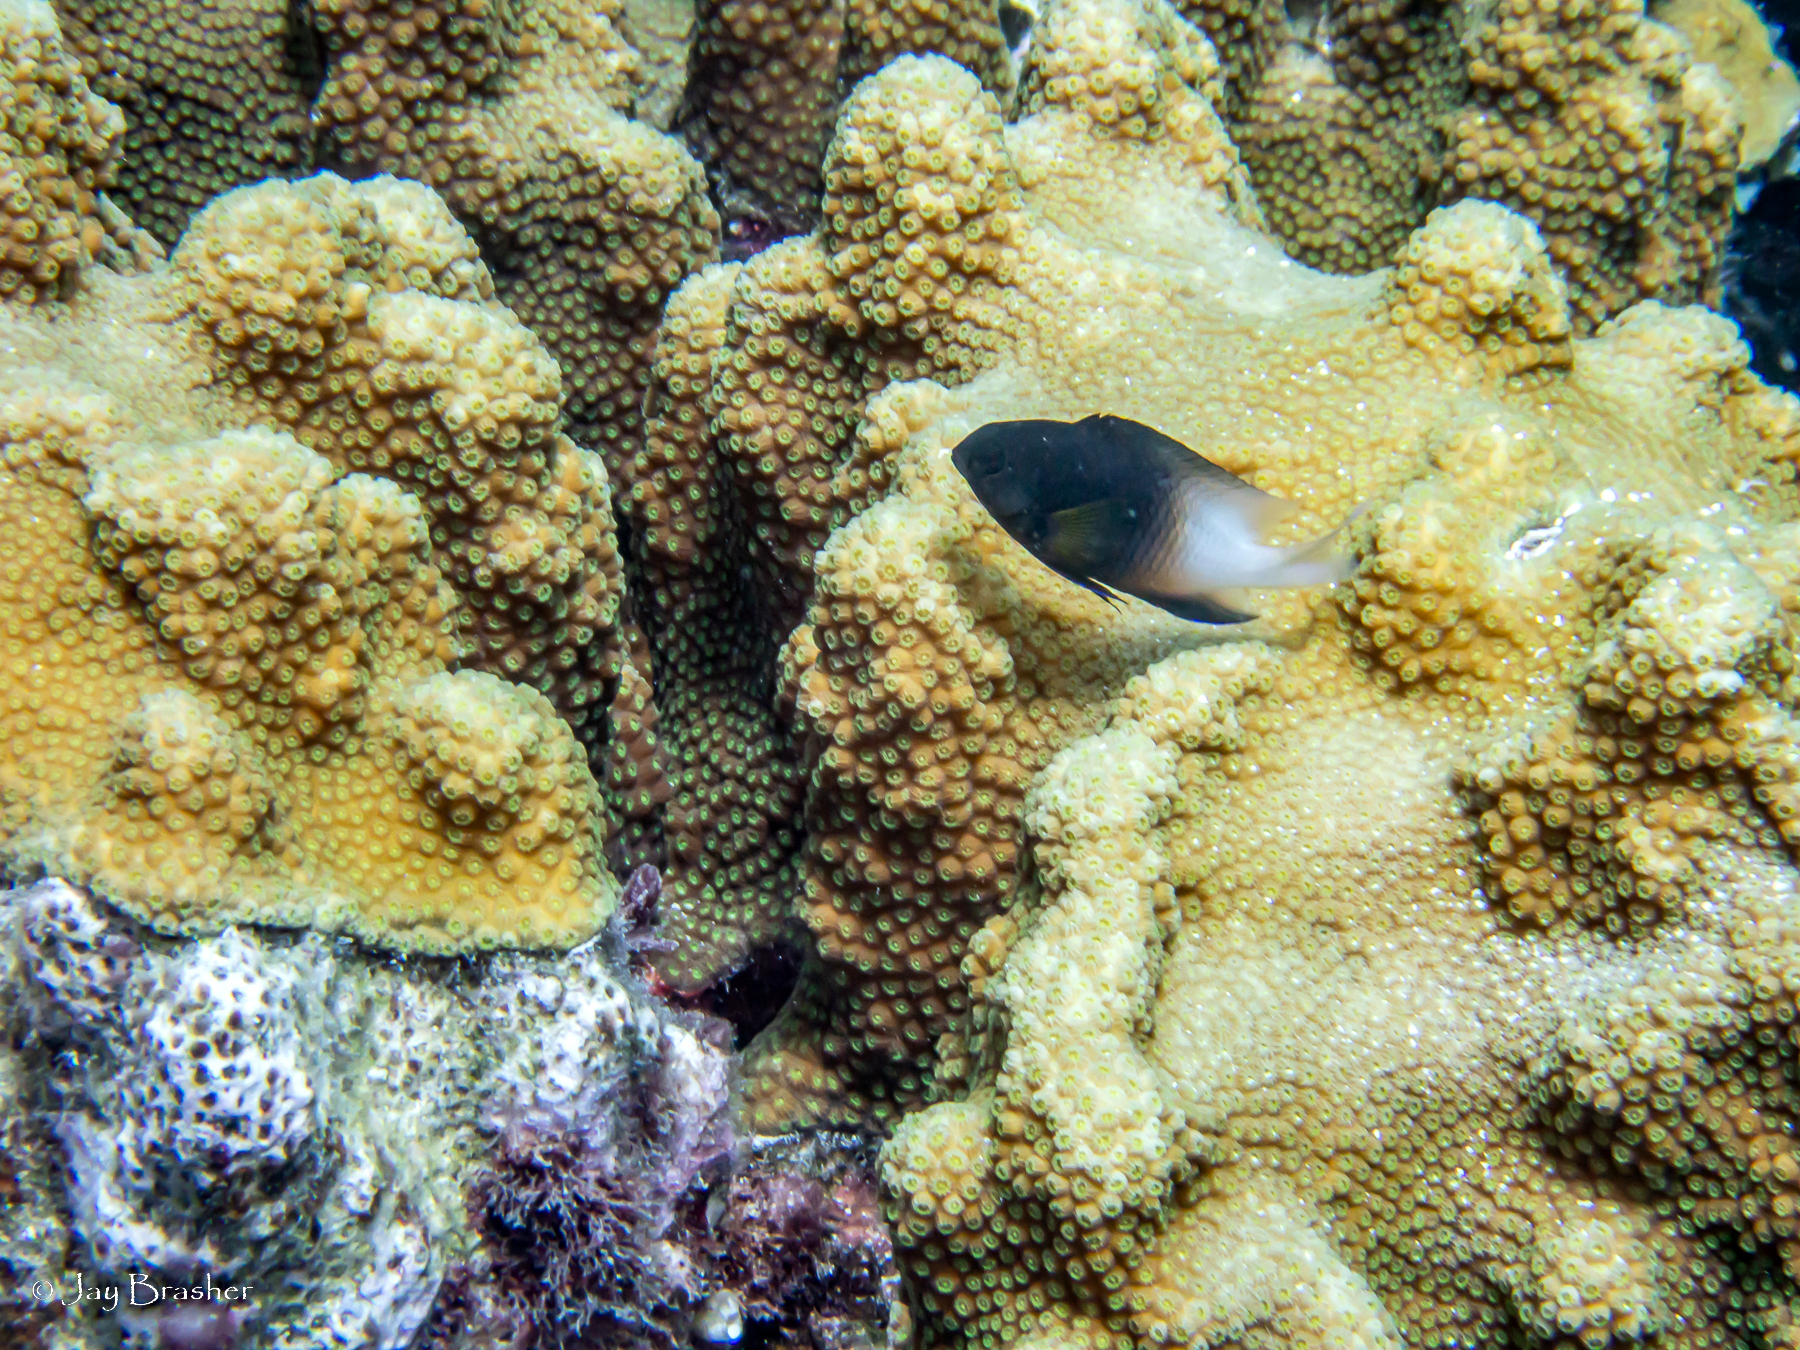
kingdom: Animalia
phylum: Cnidaria
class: Anthozoa
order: Scleractinia
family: Merulinidae
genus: Orbicella
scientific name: Orbicella faveolata
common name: Mountainous star coral
